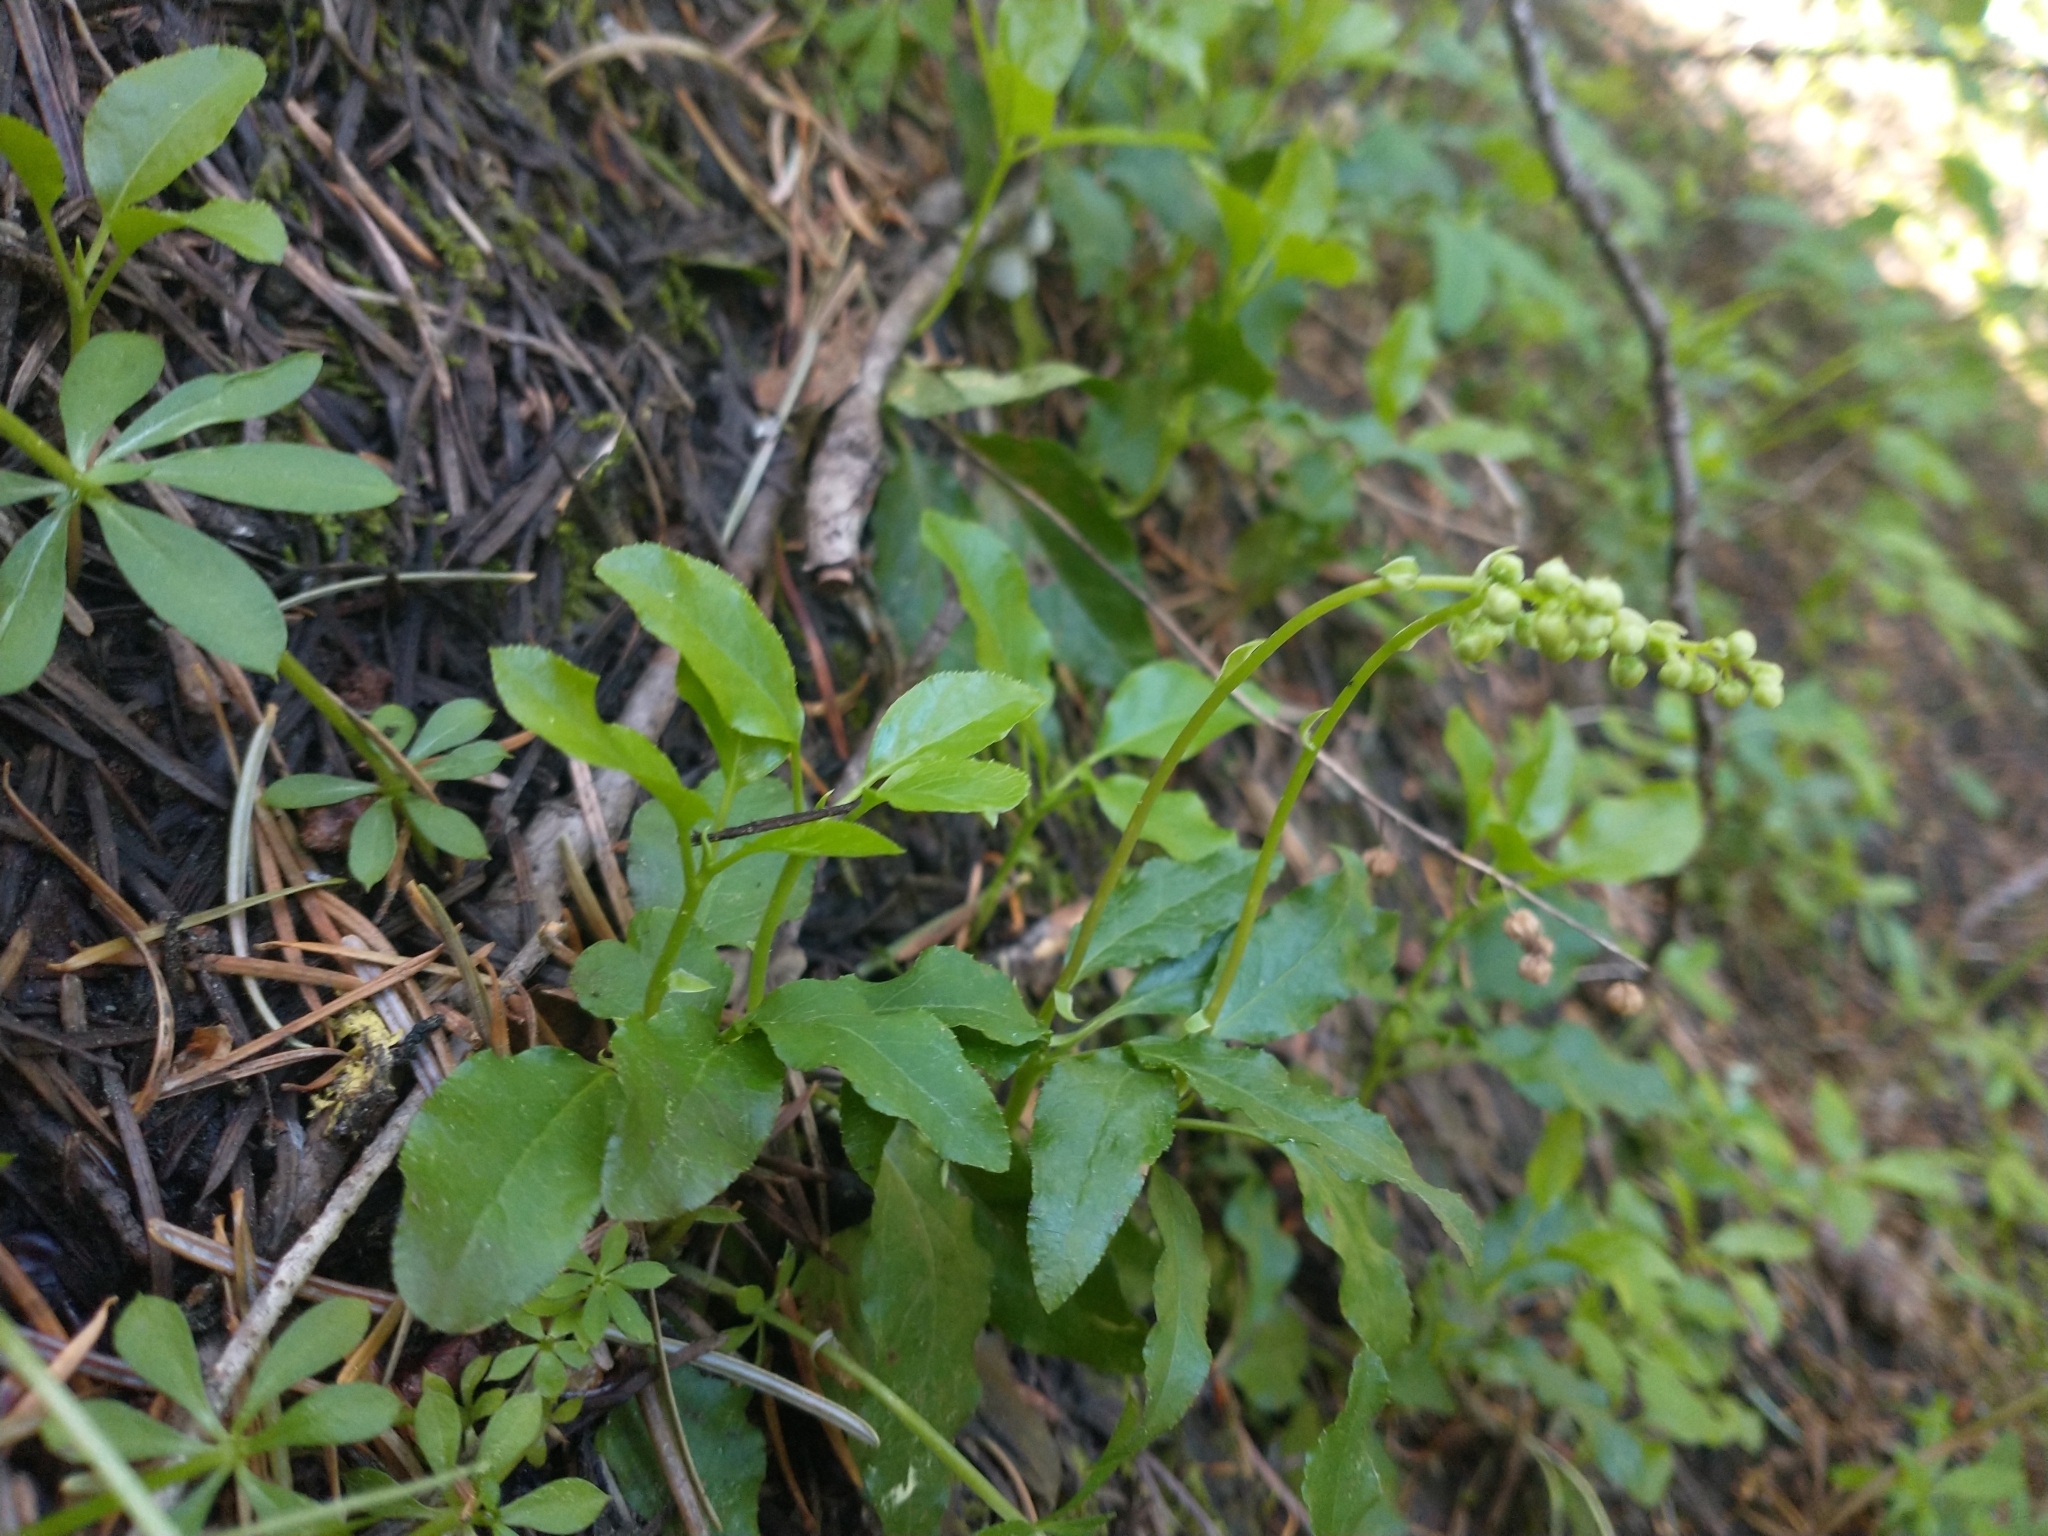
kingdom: Plantae
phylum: Tracheophyta
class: Magnoliopsida
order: Ericales
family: Ericaceae
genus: Orthilia
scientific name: Orthilia secunda
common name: One-sided orthilia
